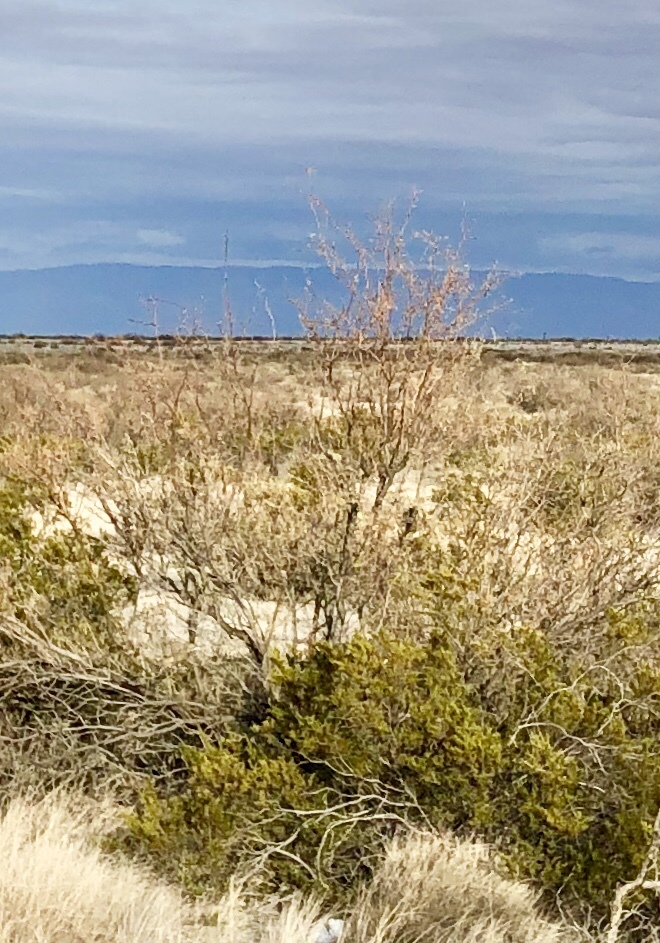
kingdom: Plantae
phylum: Tracheophyta
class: Magnoliopsida
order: Fabales
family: Fabaceae
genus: Prosopis
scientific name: Prosopis glandulosa
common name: Honey mesquite
